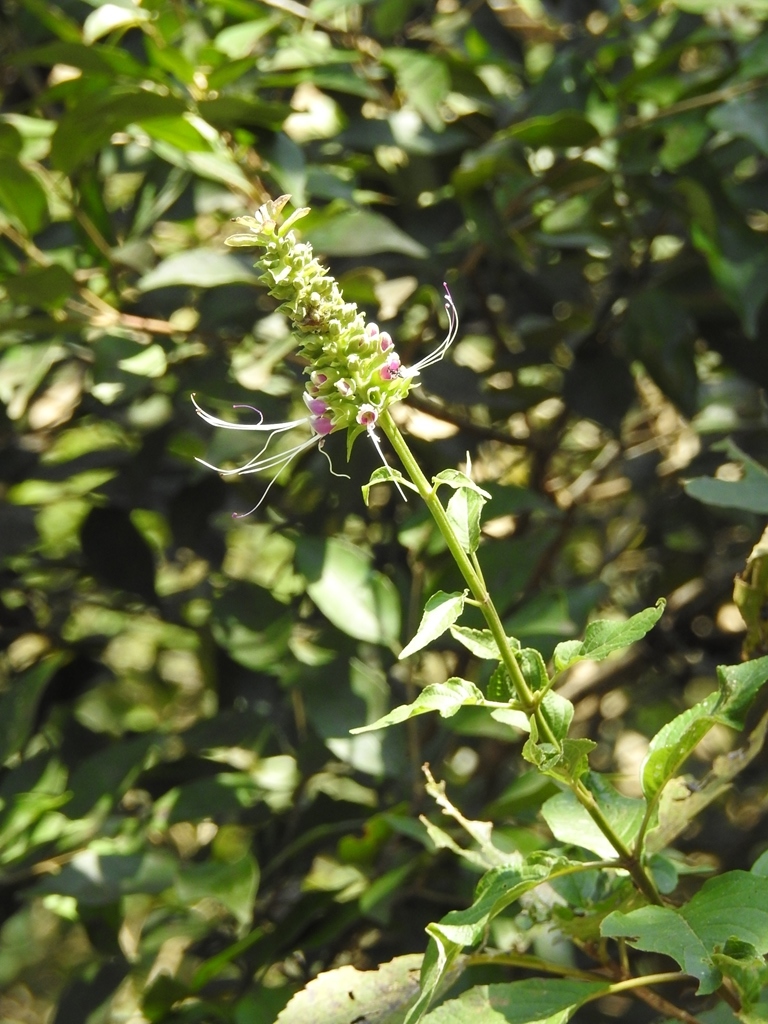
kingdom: Plantae
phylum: Tracheophyta
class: Magnoliopsida
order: Lamiales
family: Lamiaceae
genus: Catoferia
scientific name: Catoferia chiapensis
